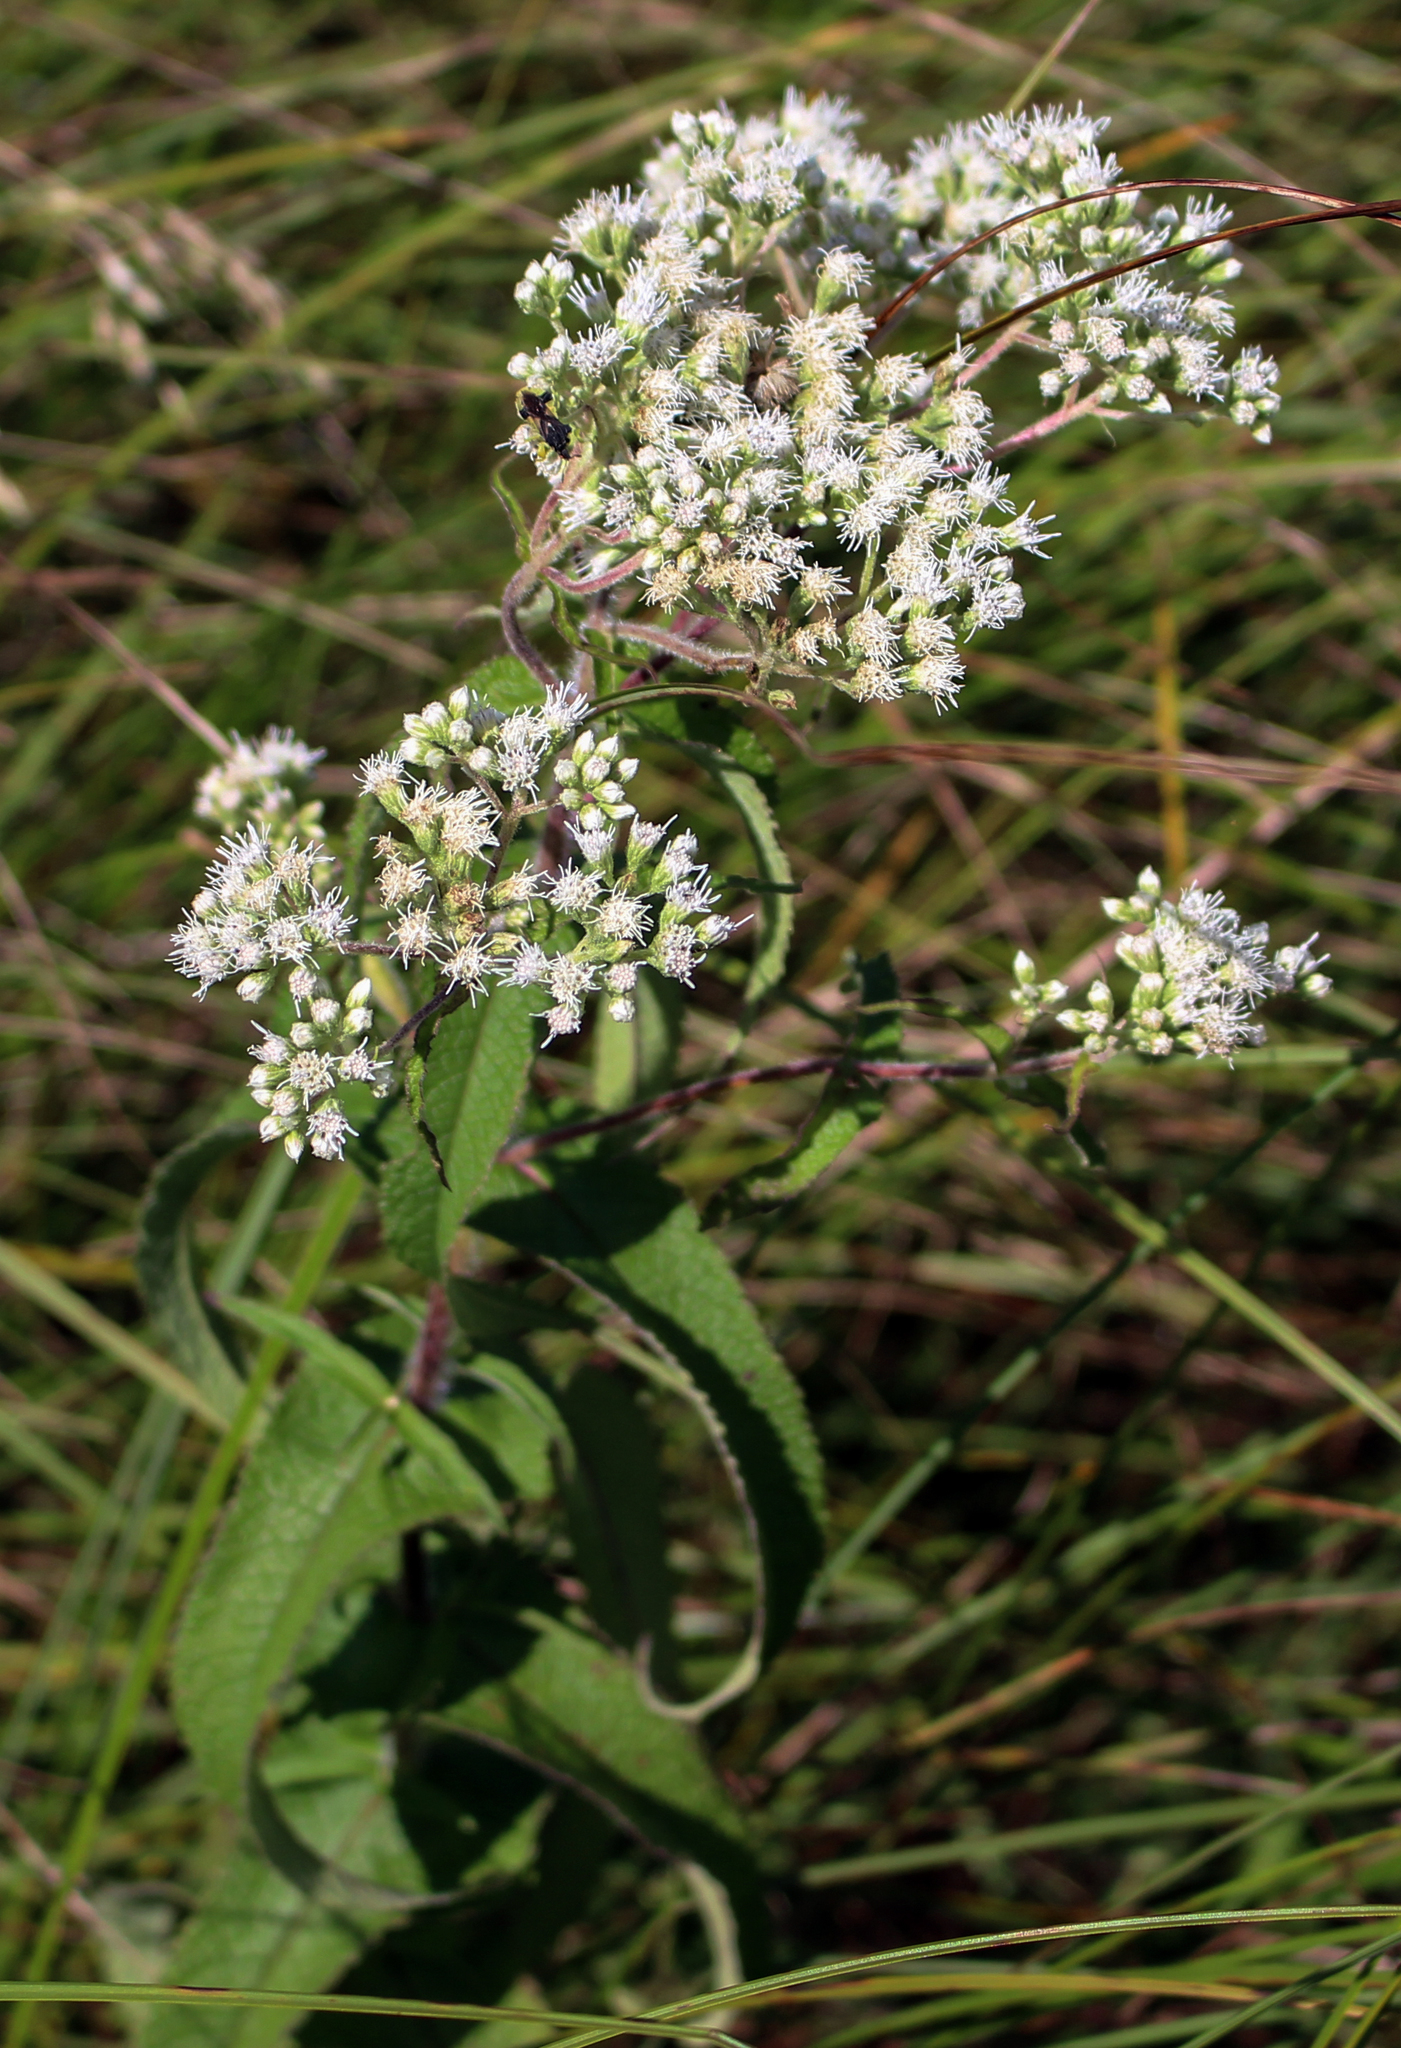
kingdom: Plantae
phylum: Tracheophyta
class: Magnoliopsida
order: Asterales
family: Asteraceae
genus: Eupatorium
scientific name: Eupatorium perfoliatum
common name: Boneset
